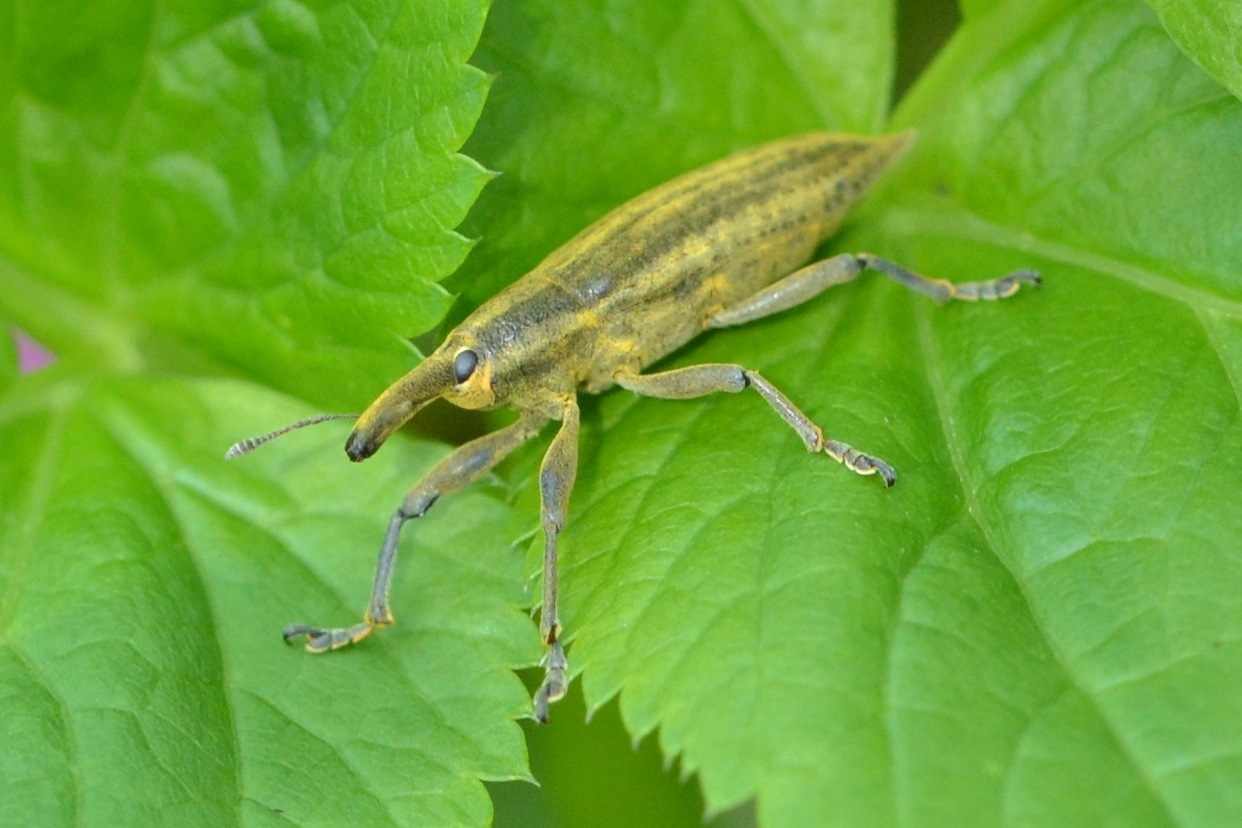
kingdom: Animalia
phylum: Arthropoda
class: Insecta
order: Coleoptera
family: Curculionidae
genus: Lixus
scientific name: Lixus iridis
